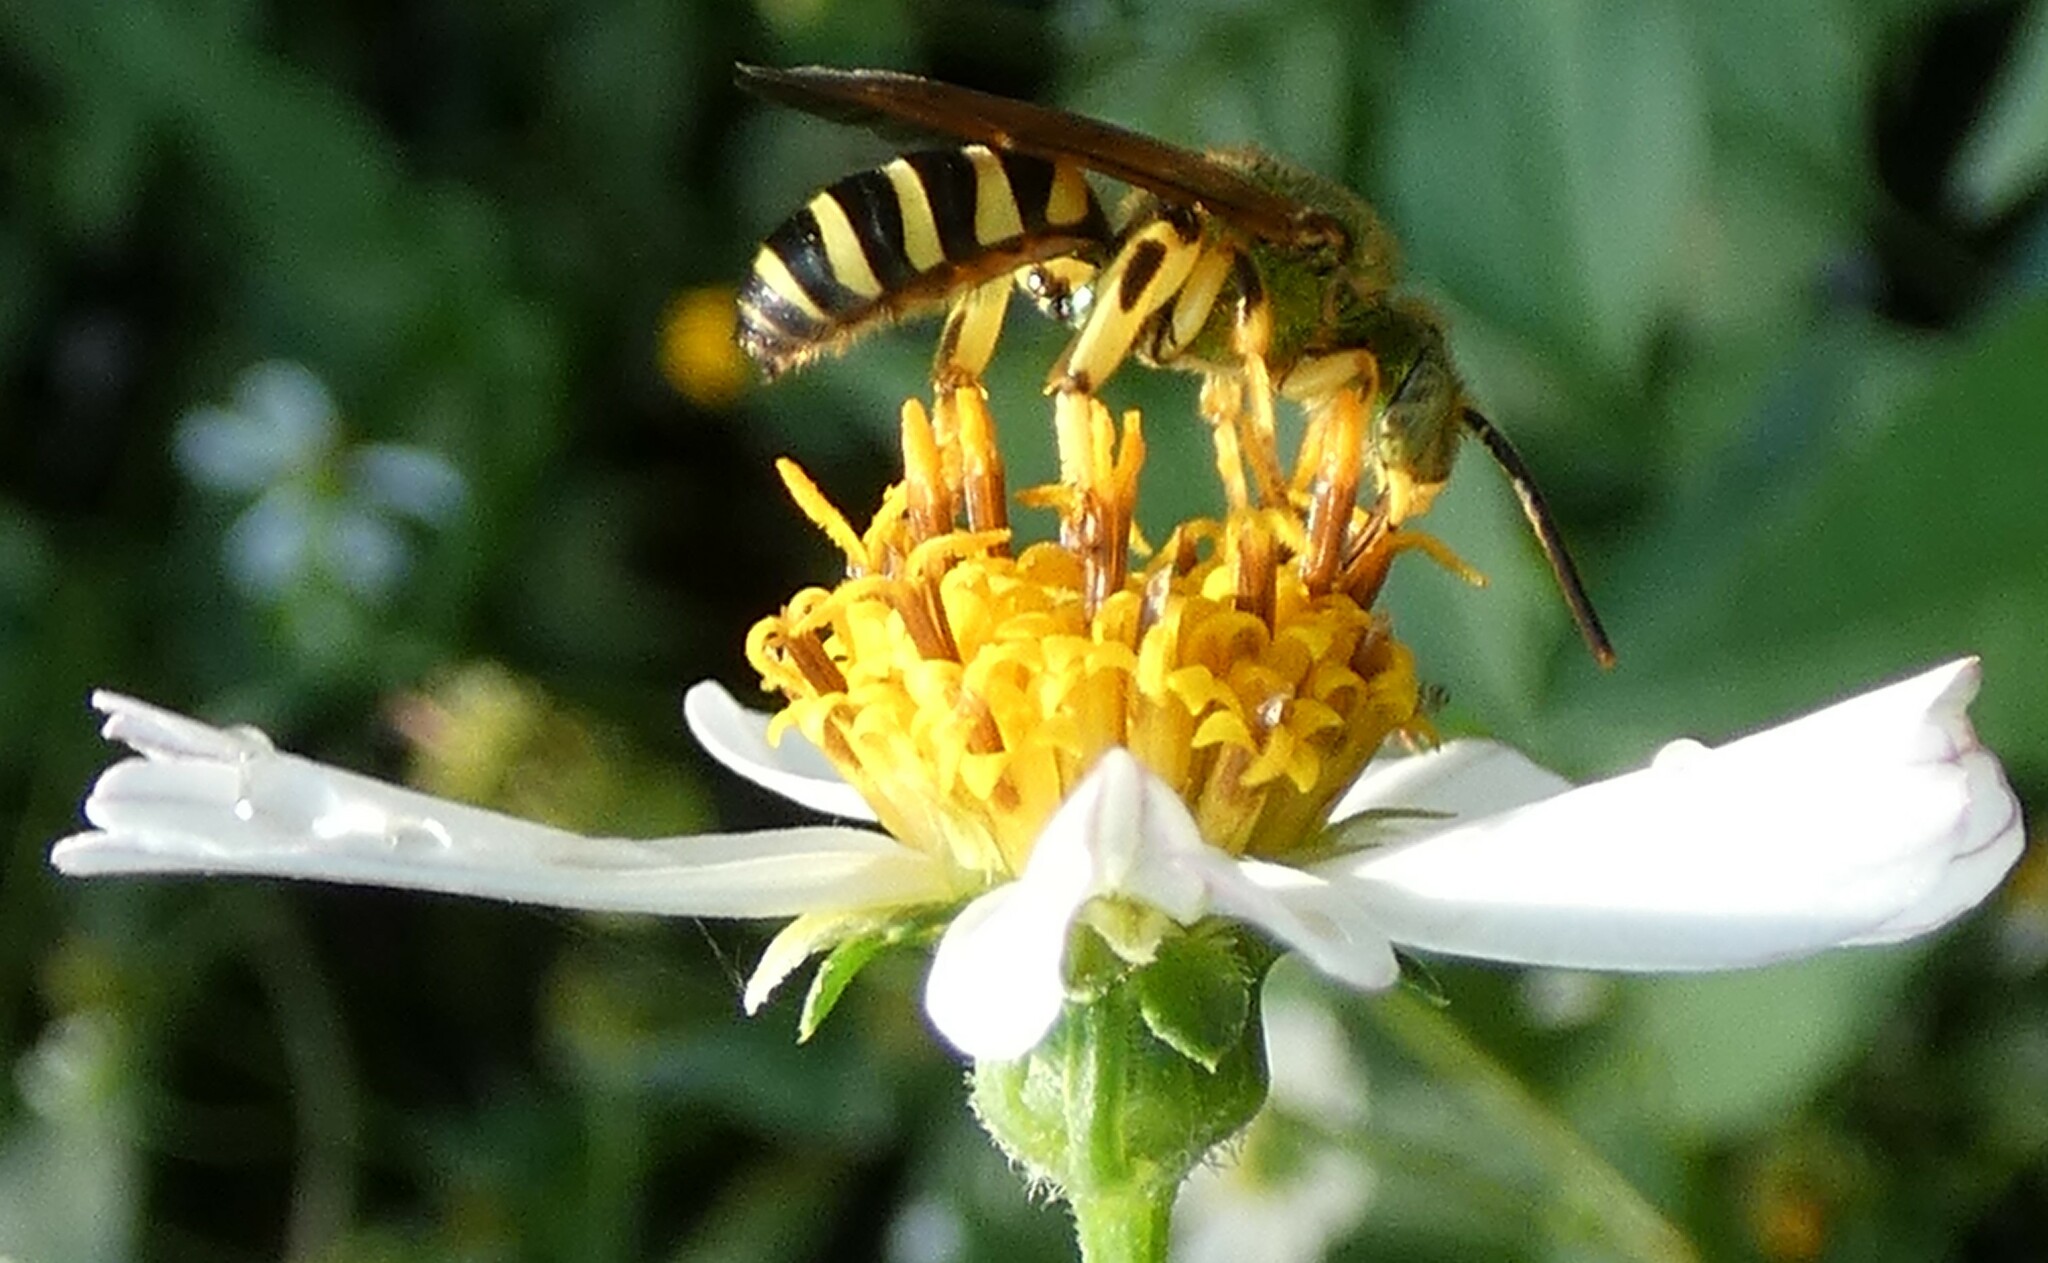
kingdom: Animalia
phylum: Arthropoda
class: Insecta
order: Hymenoptera
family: Halictidae
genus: Agapostemon
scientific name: Agapostemon splendens
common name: Brown-winged striped sweat bee
